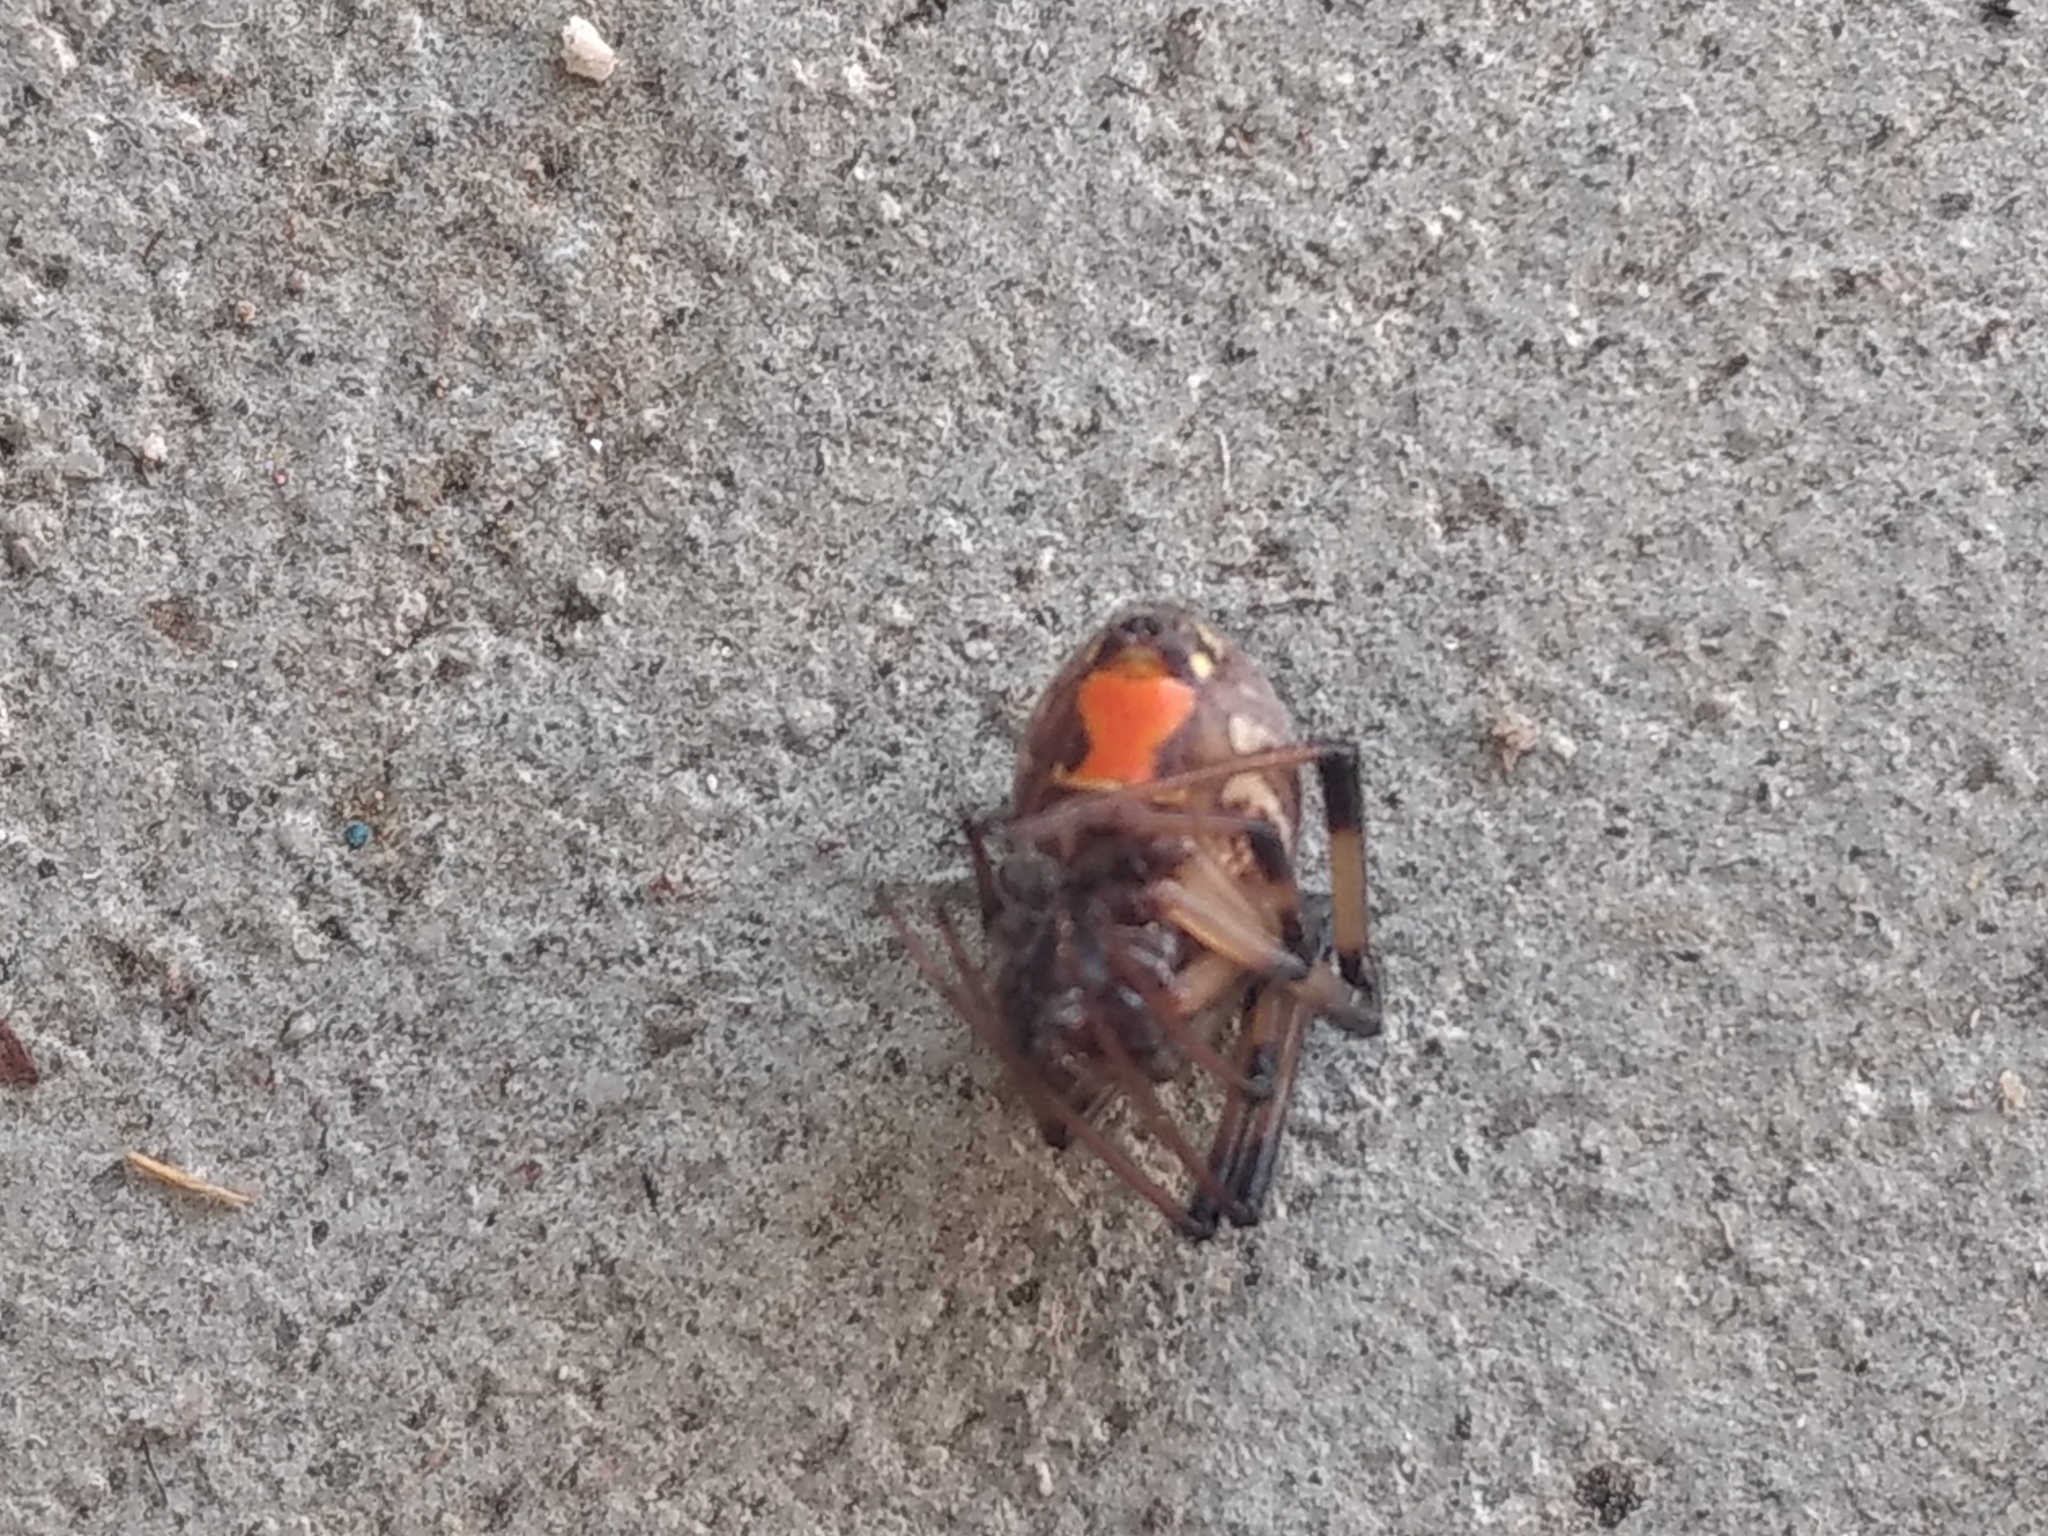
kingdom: Animalia
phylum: Arthropoda
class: Arachnida
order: Araneae
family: Theridiidae
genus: Latrodectus
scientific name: Latrodectus geometricus
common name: Brown widow spider
